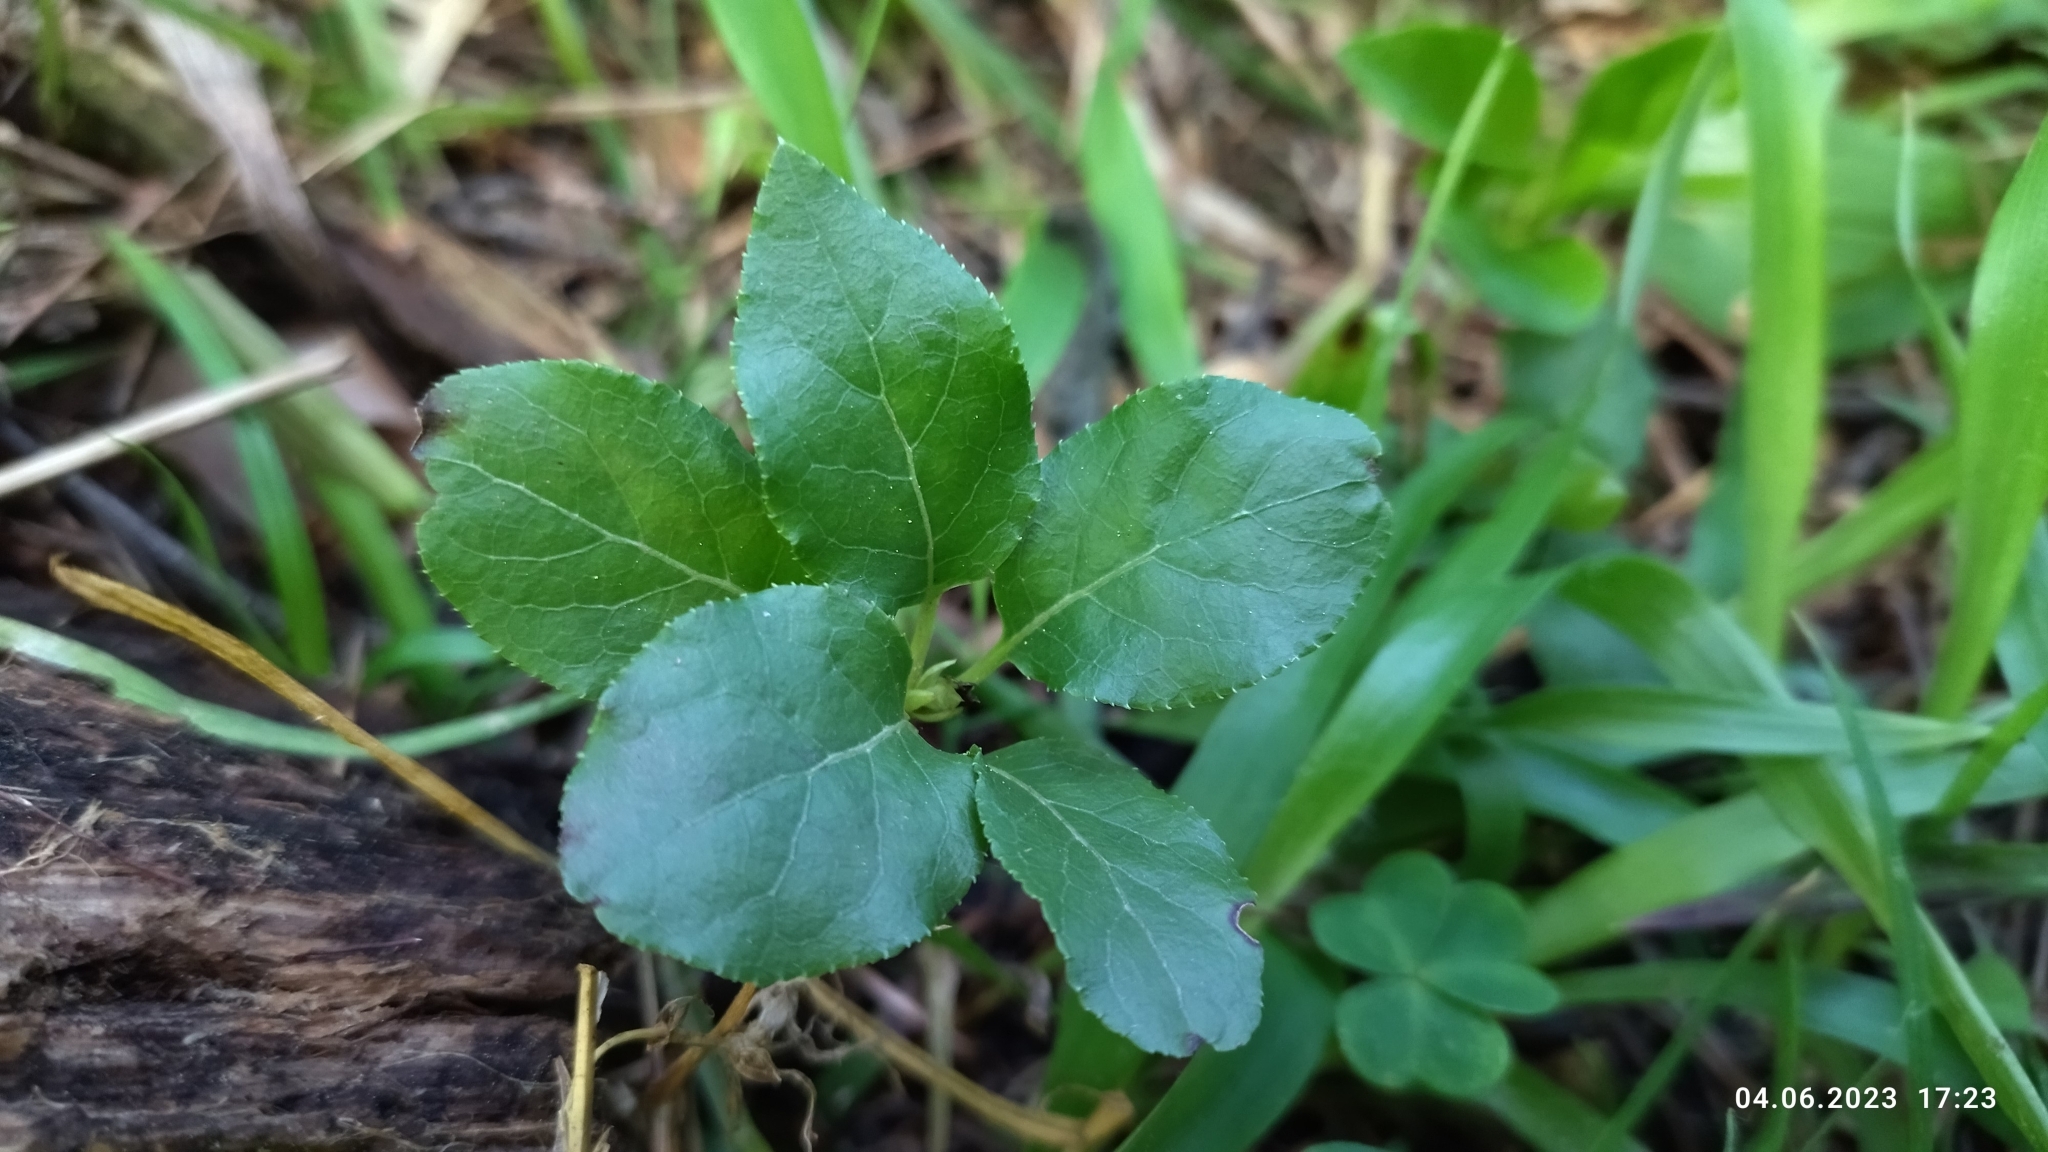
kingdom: Plantae
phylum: Tracheophyta
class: Magnoliopsida
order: Ericales
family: Ericaceae
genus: Orthilia
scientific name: Orthilia secunda
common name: One-sided orthilia
